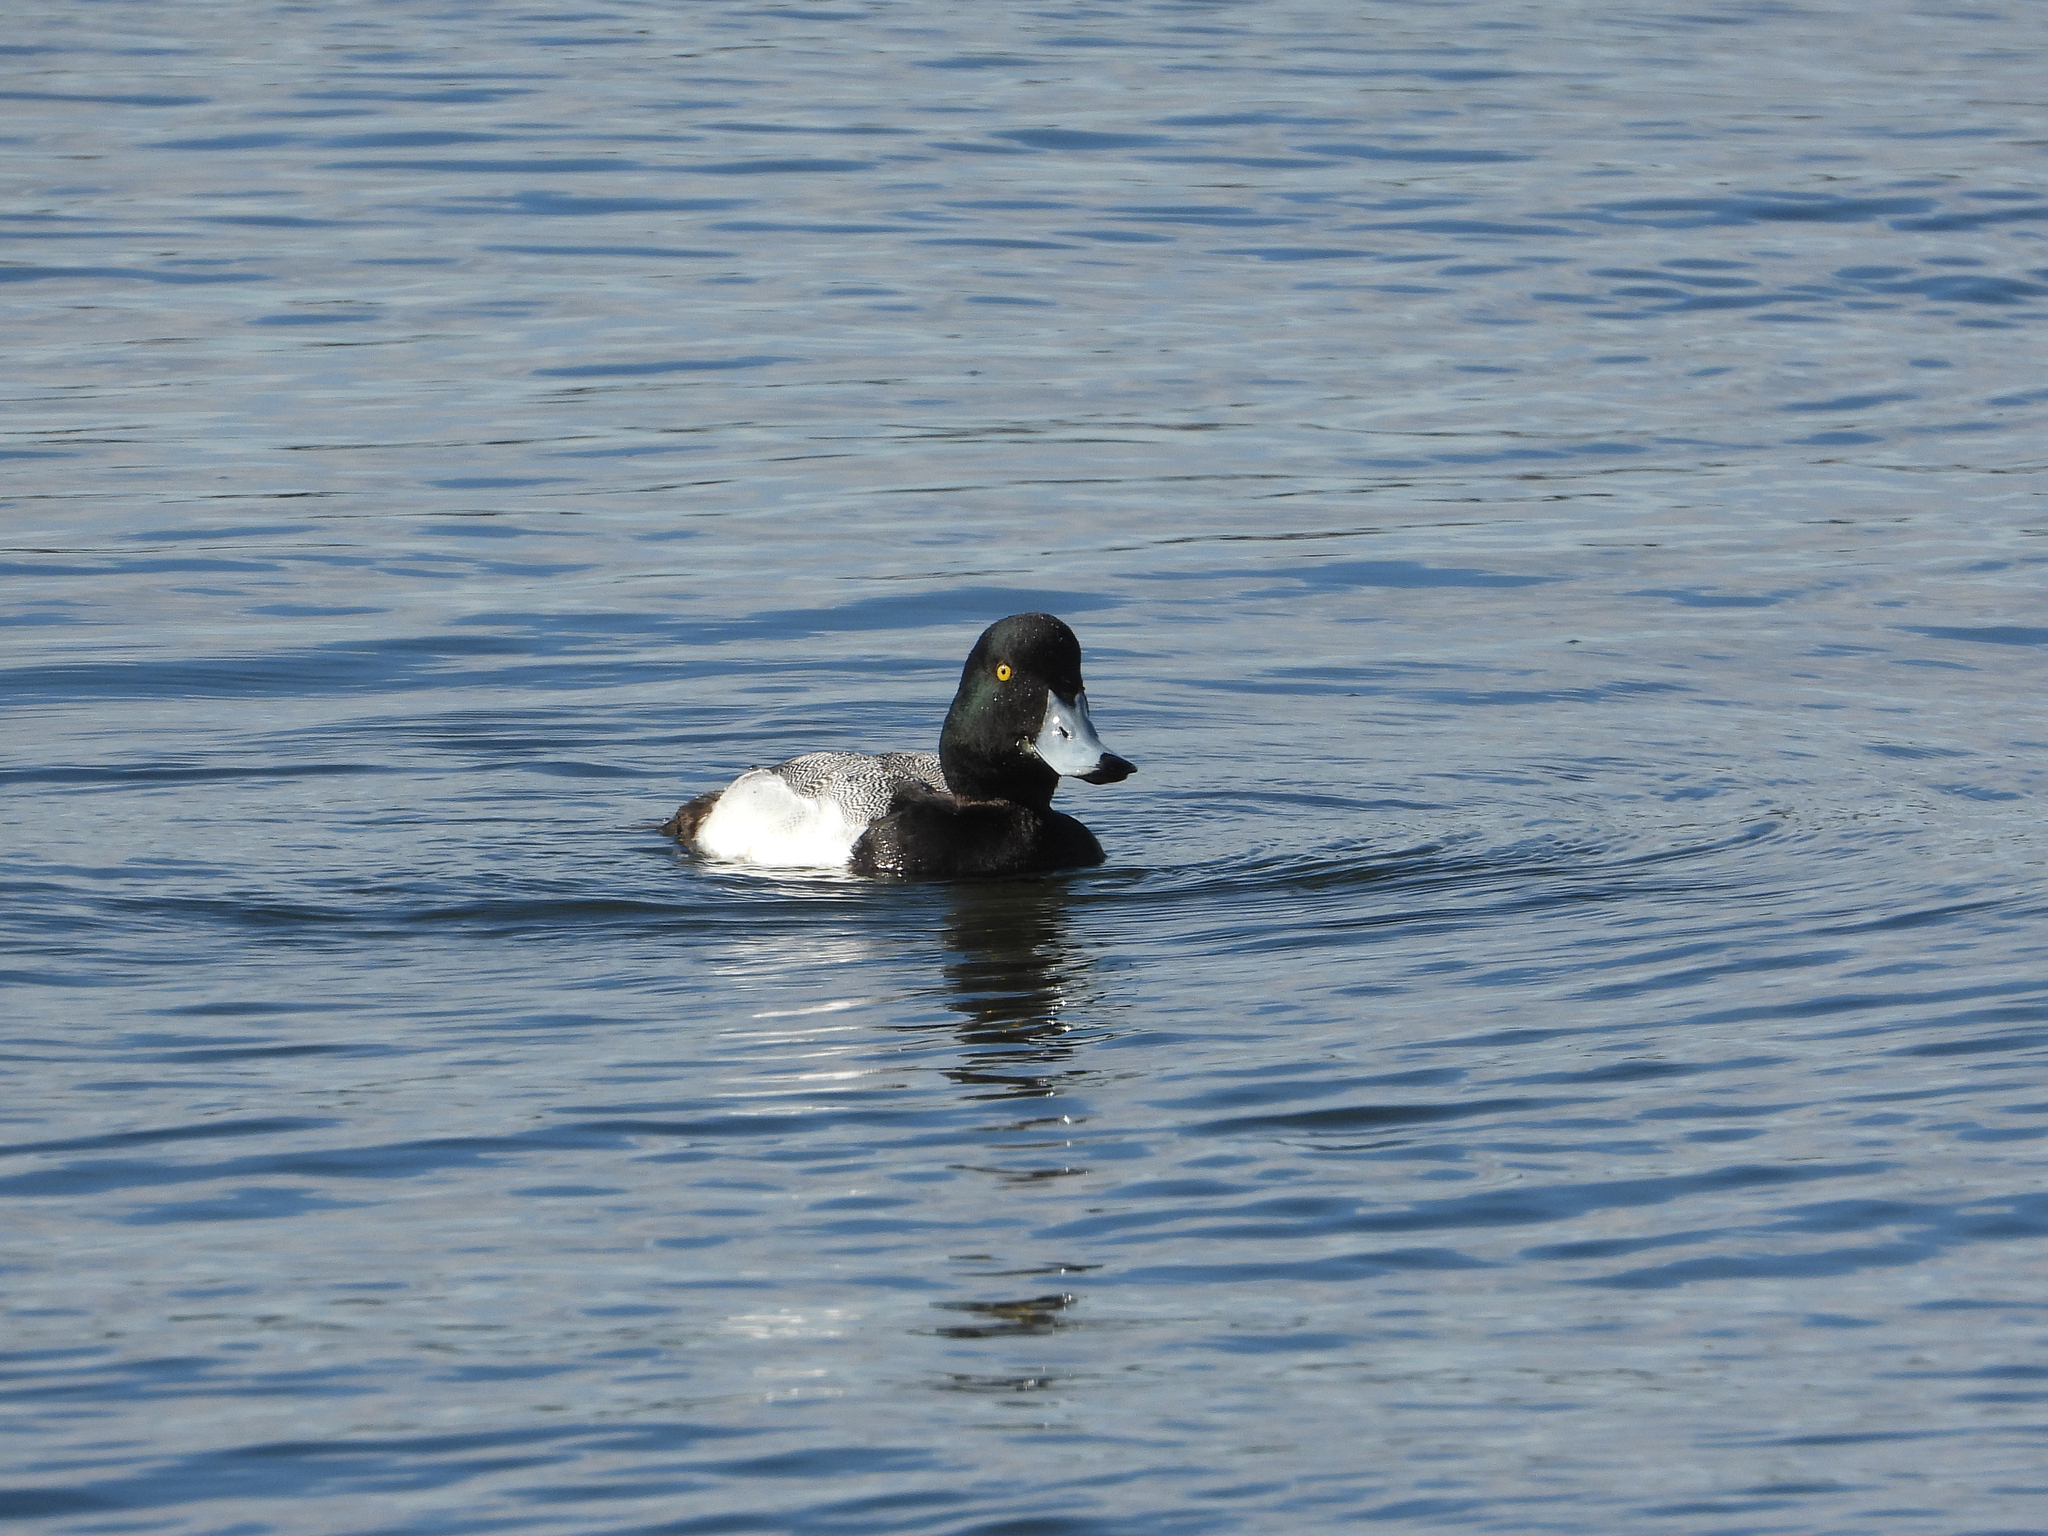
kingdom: Animalia
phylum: Chordata
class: Aves
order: Anseriformes
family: Anatidae
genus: Aythya
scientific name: Aythya marila
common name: Greater scaup
